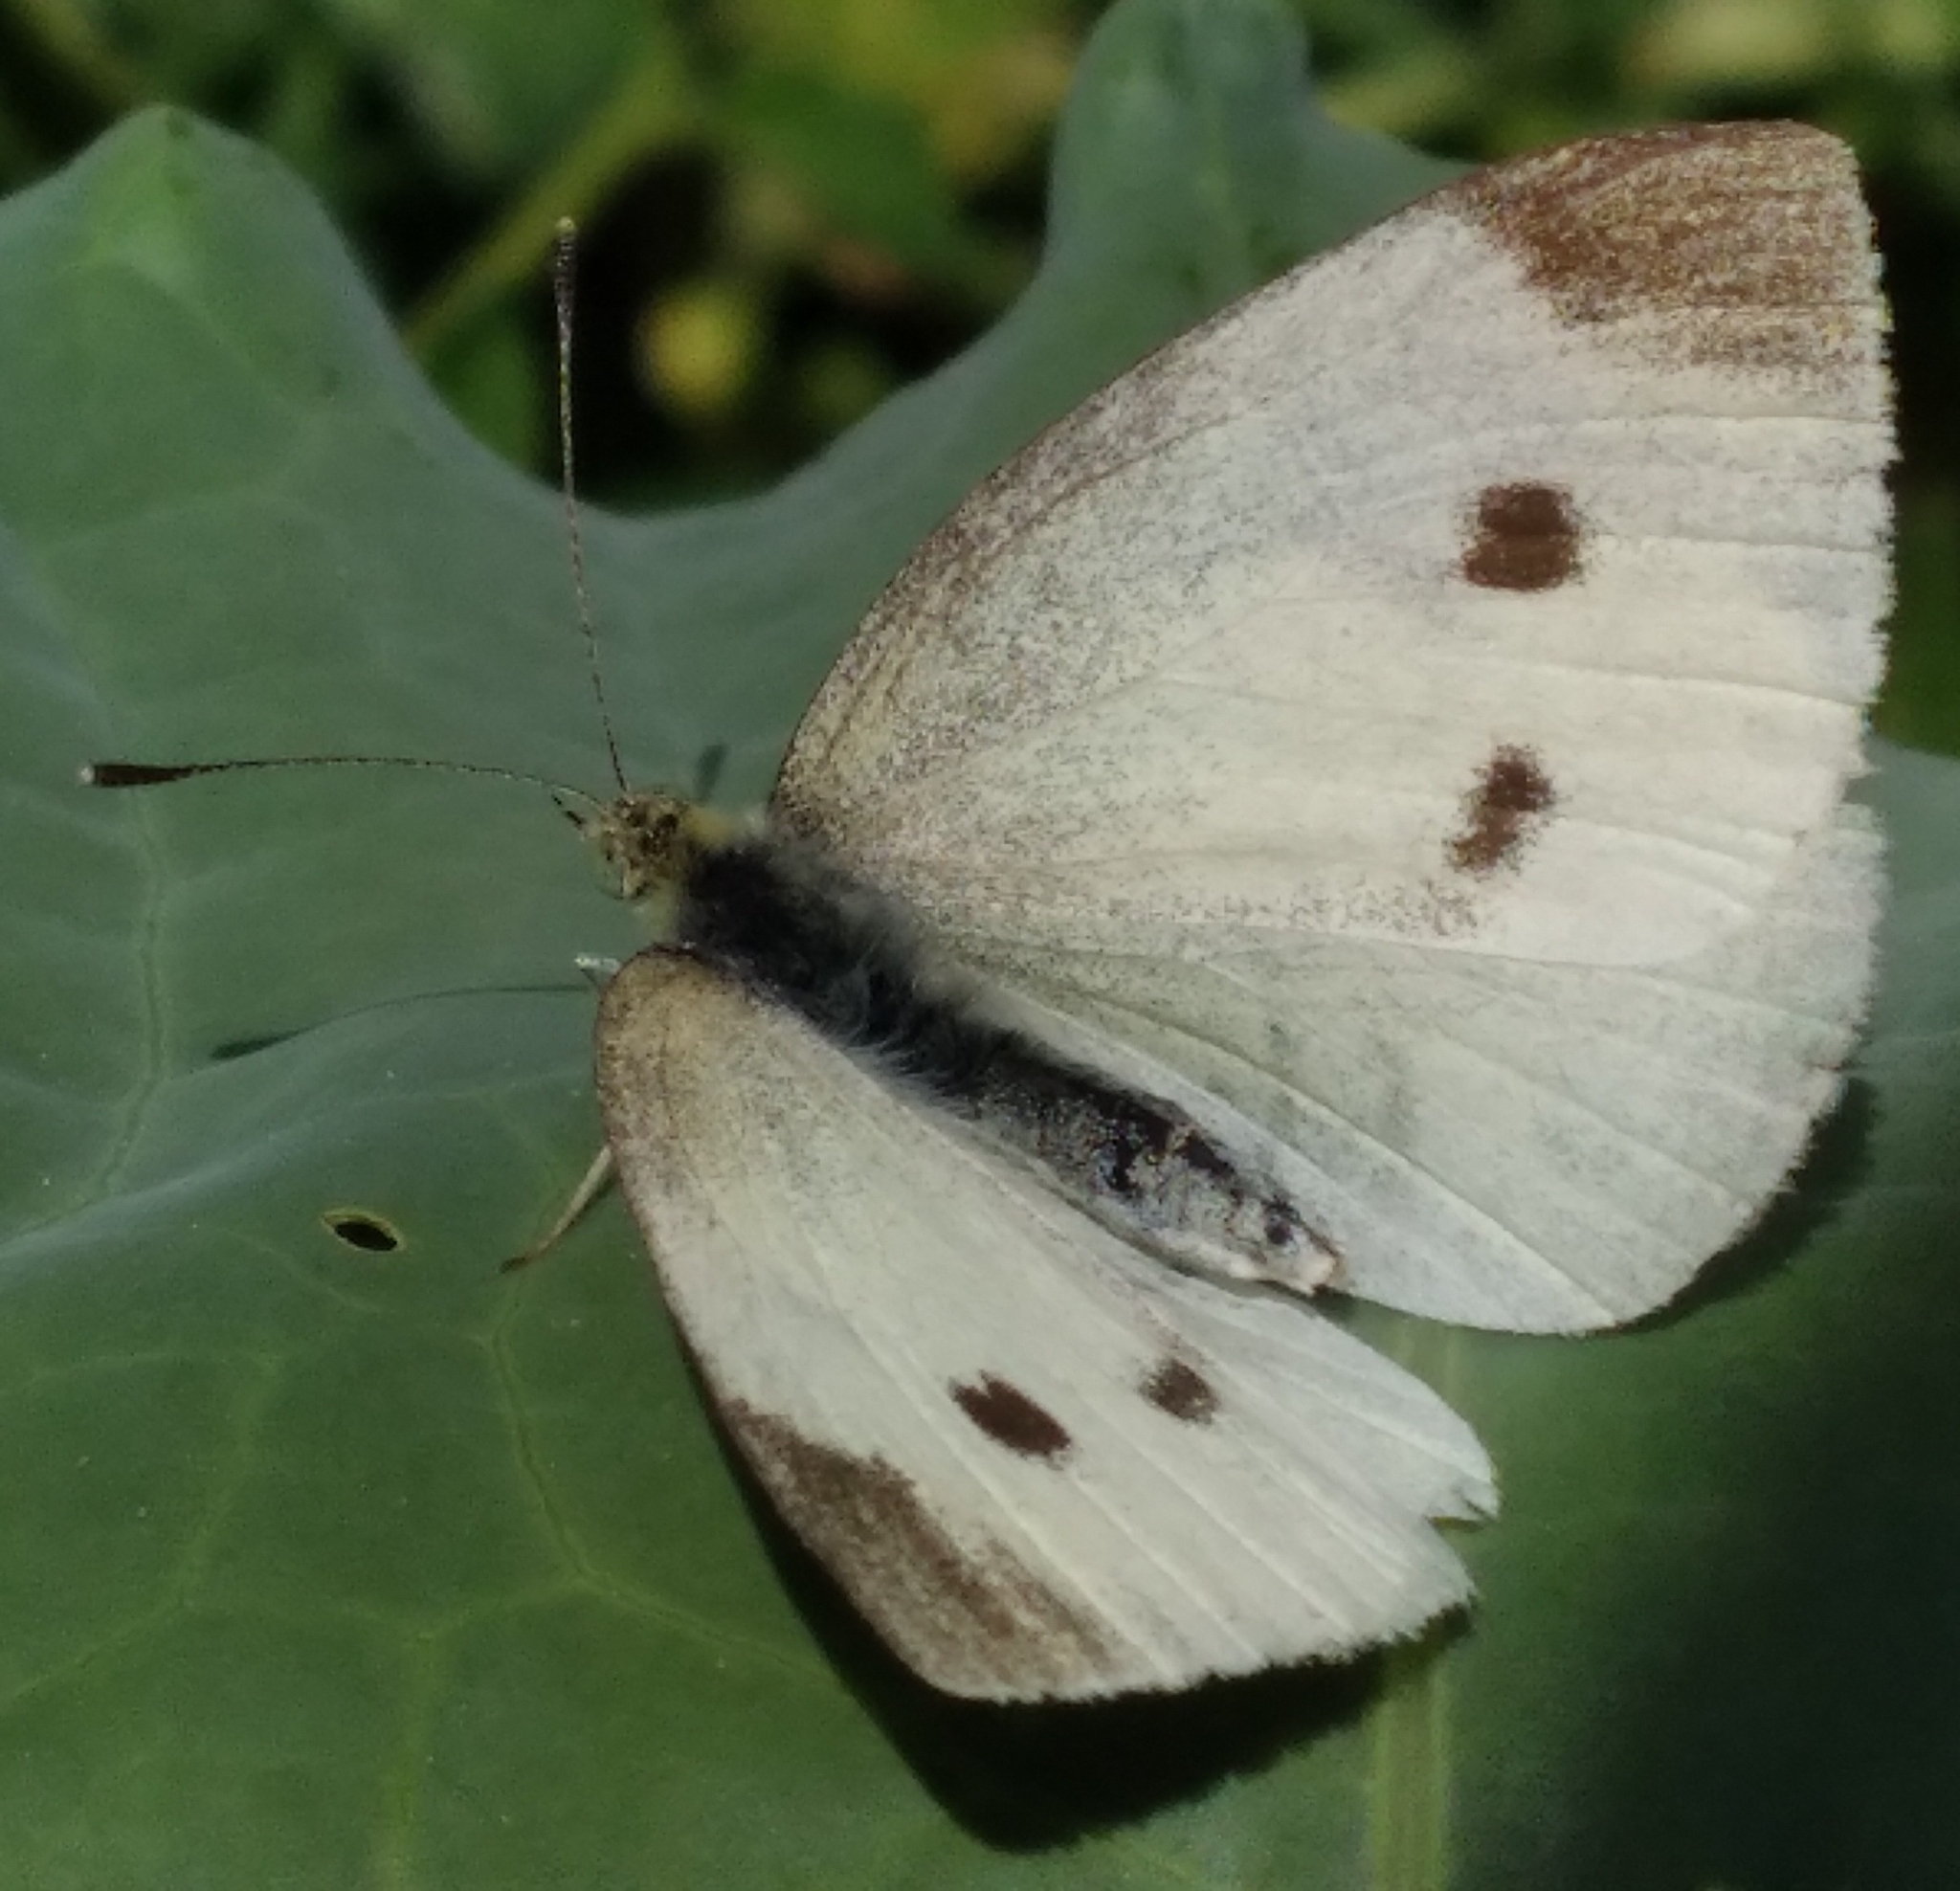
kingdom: Animalia
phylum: Arthropoda
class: Insecta
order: Lepidoptera
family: Pieridae
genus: Pieris
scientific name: Pieris rapae
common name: Small white
